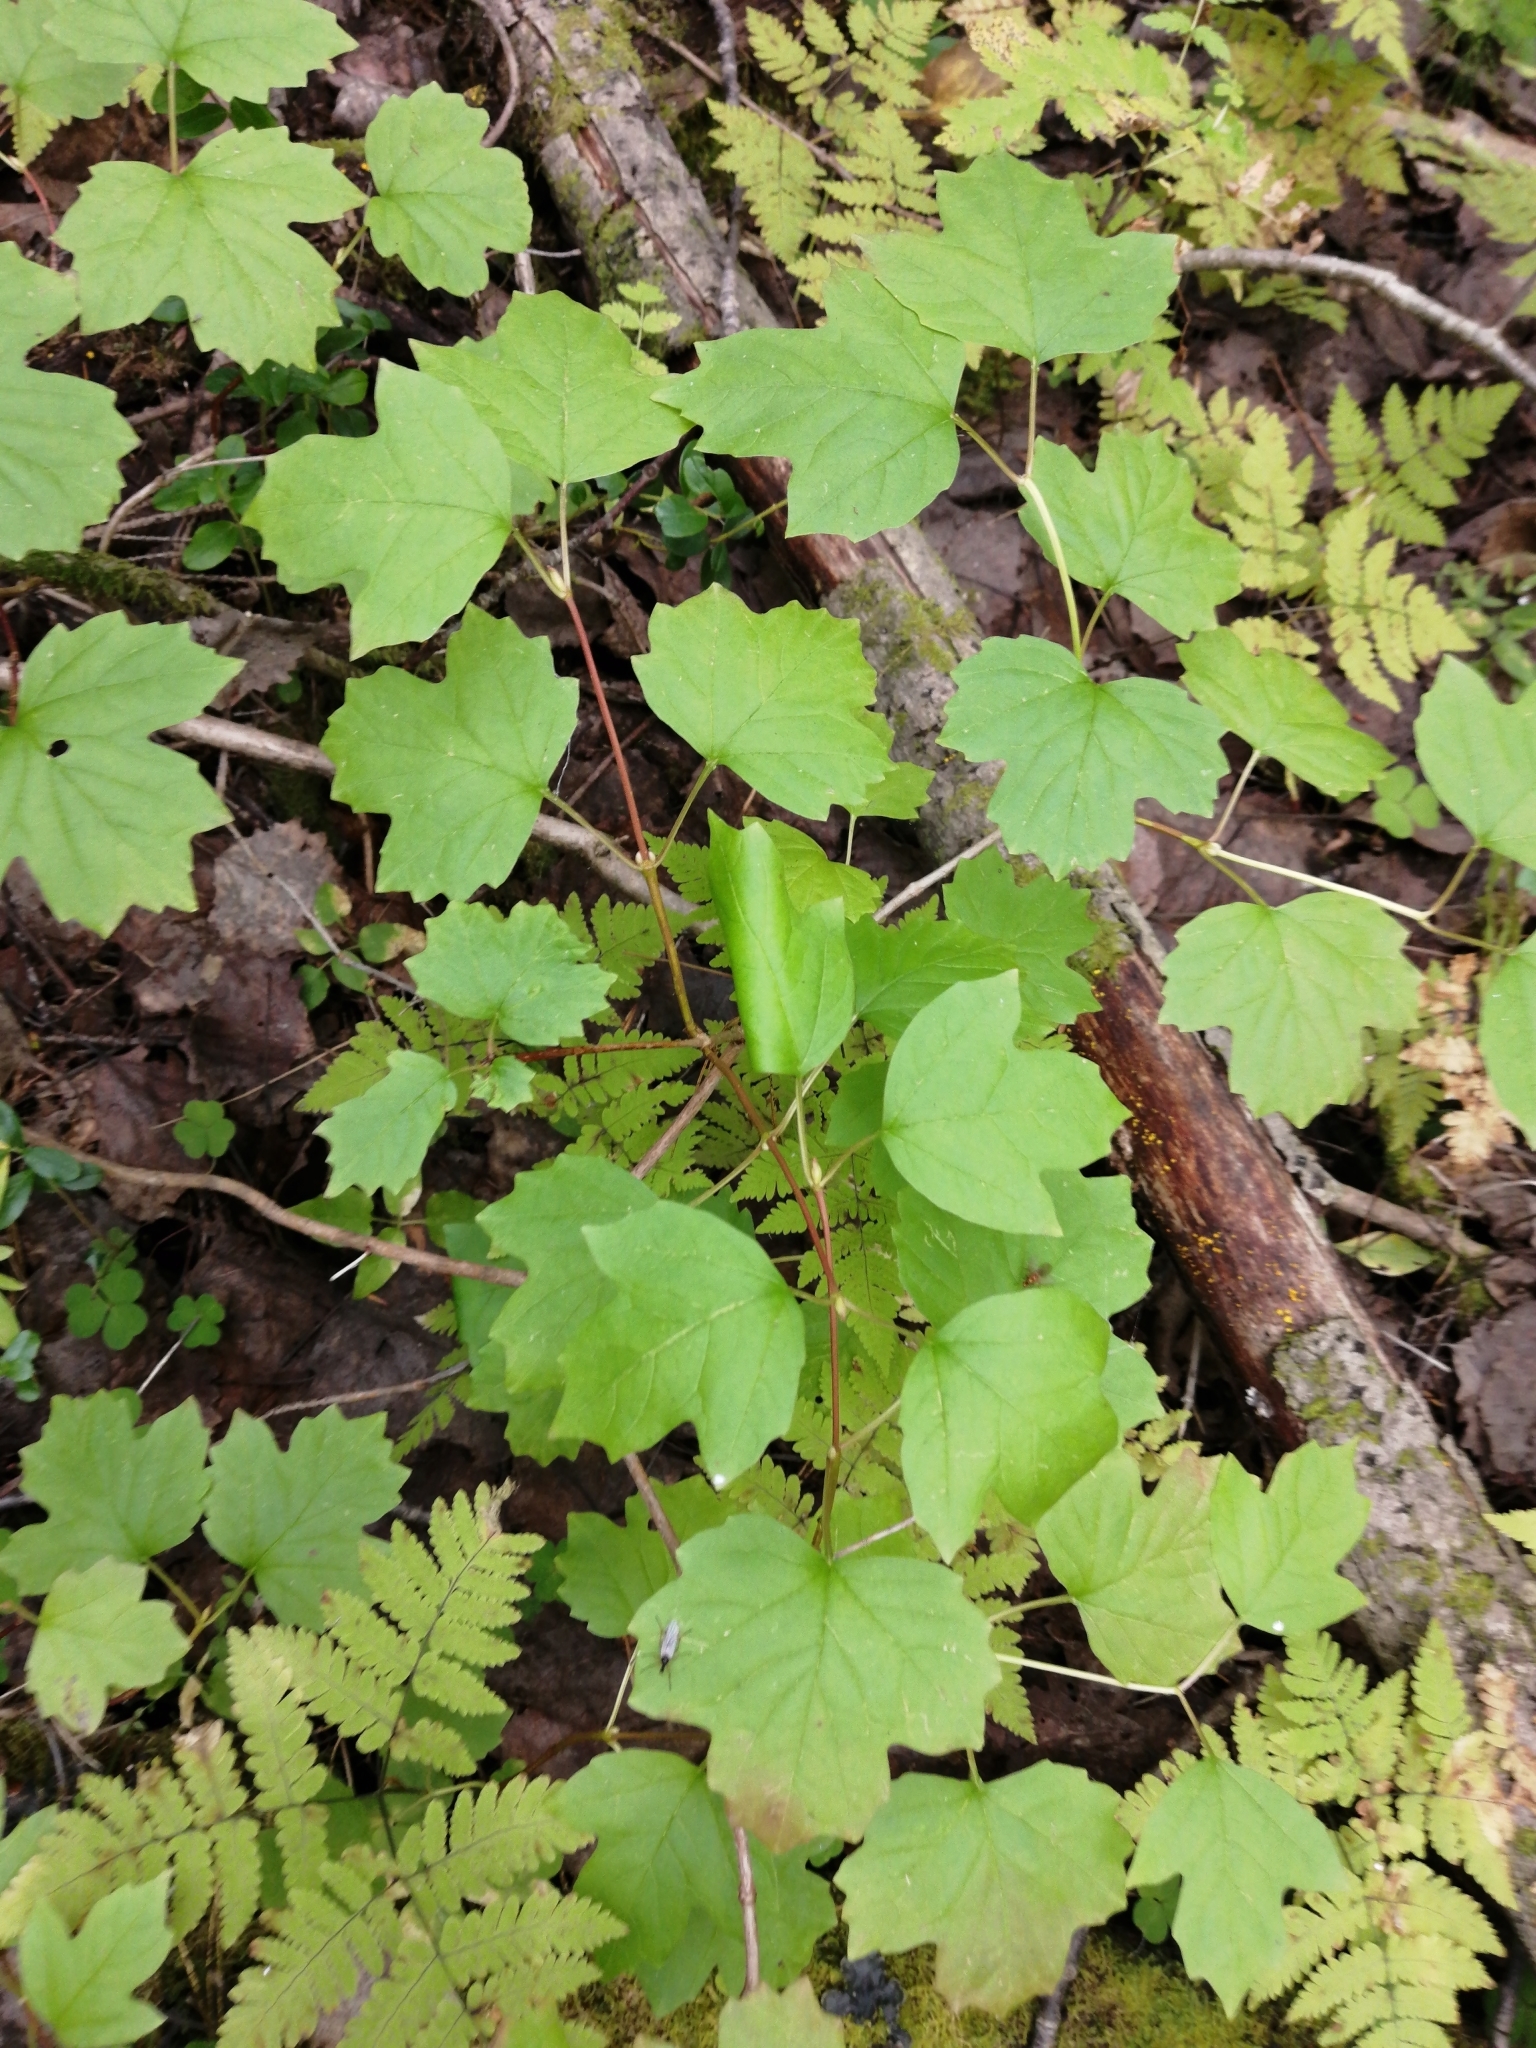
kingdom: Plantae
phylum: Tracheophyta
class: Magnoliopsida
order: Dipsacales
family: Viburnaceae
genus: Viburnum
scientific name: Viburnum opulus
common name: Guelder-rose
